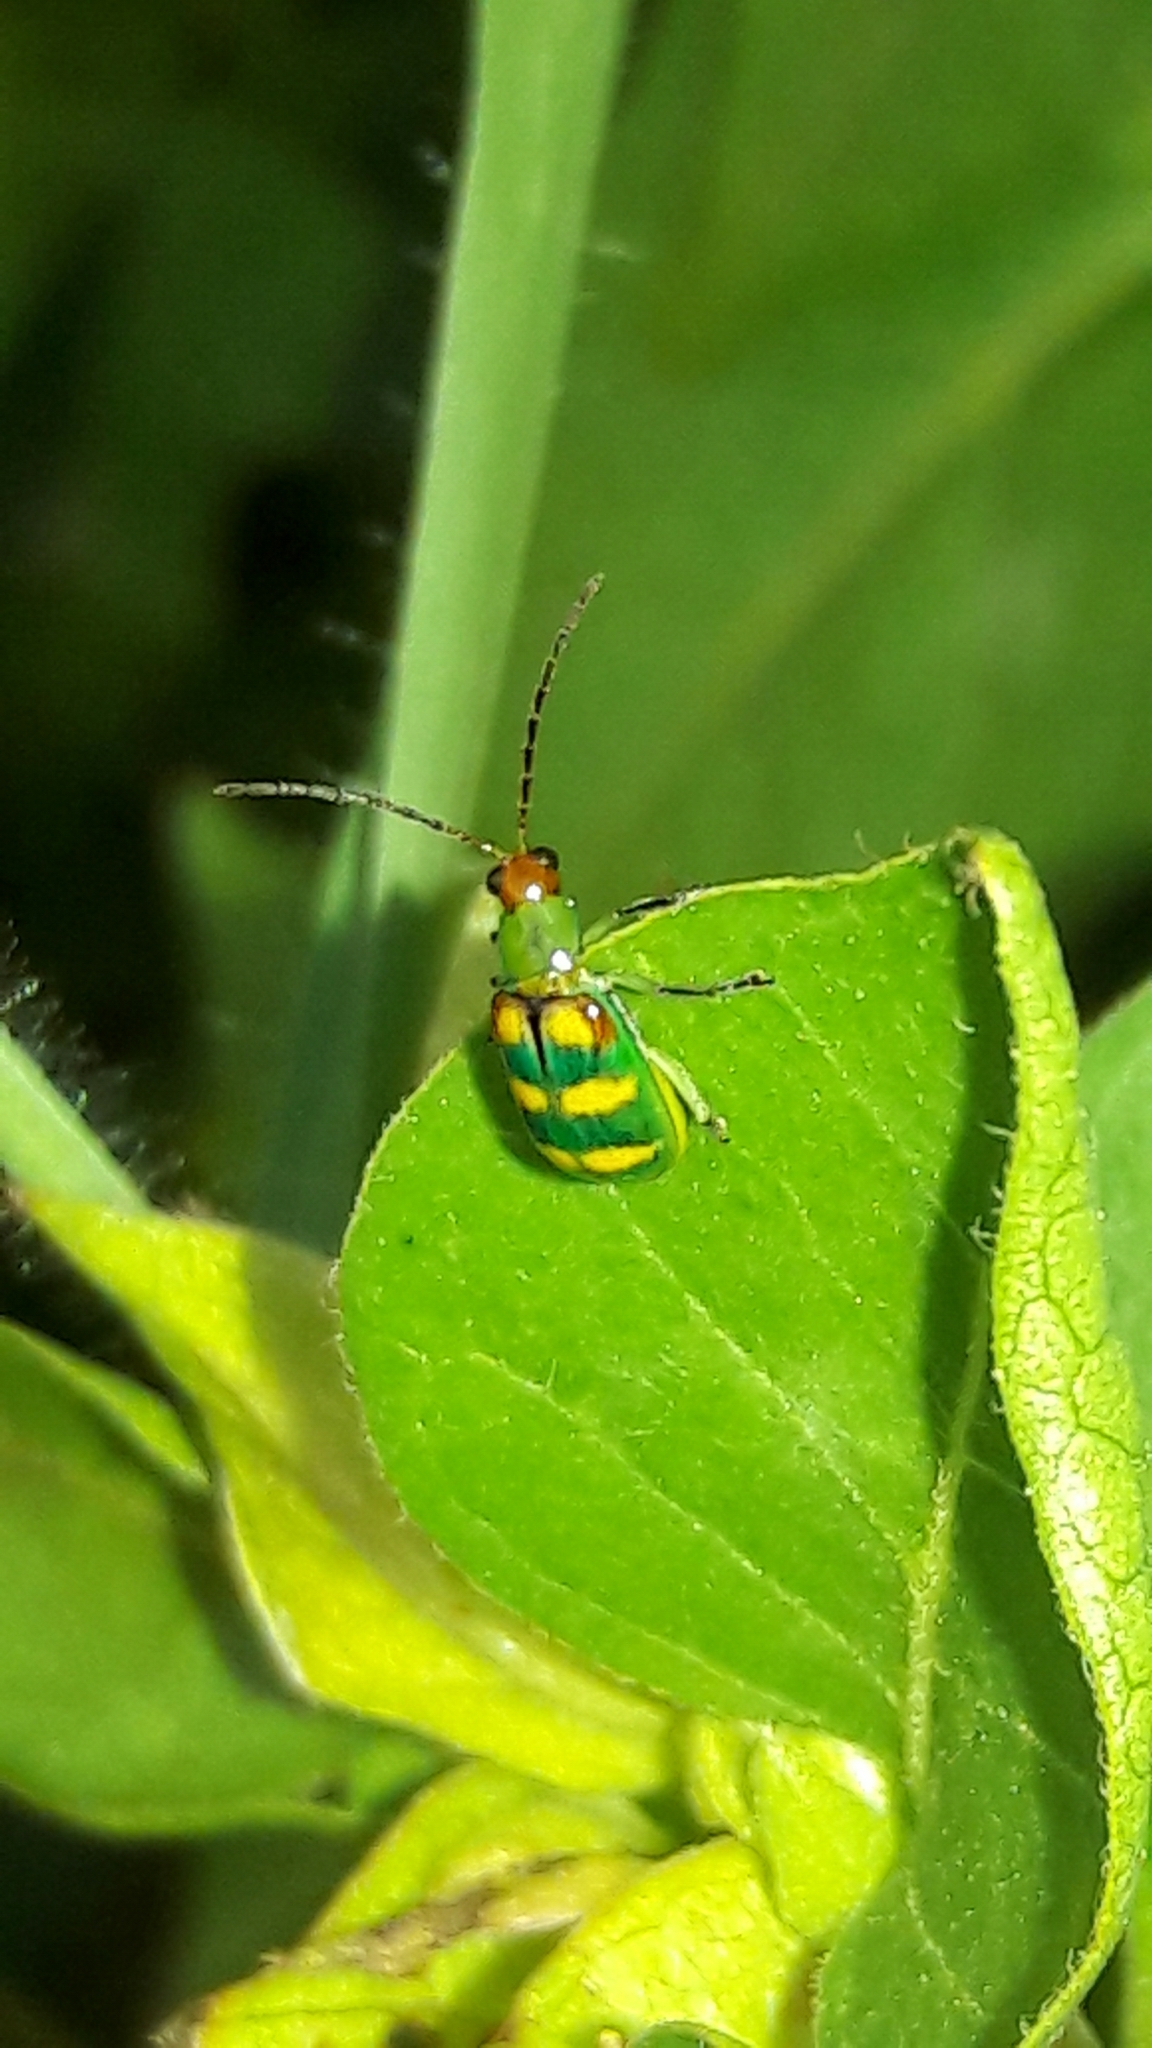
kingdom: Animalia
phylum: Arthropoda
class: Insecta
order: Coleoptera
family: Chrysomelidae
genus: Diabrotica
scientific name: Diabrotica speciosa
